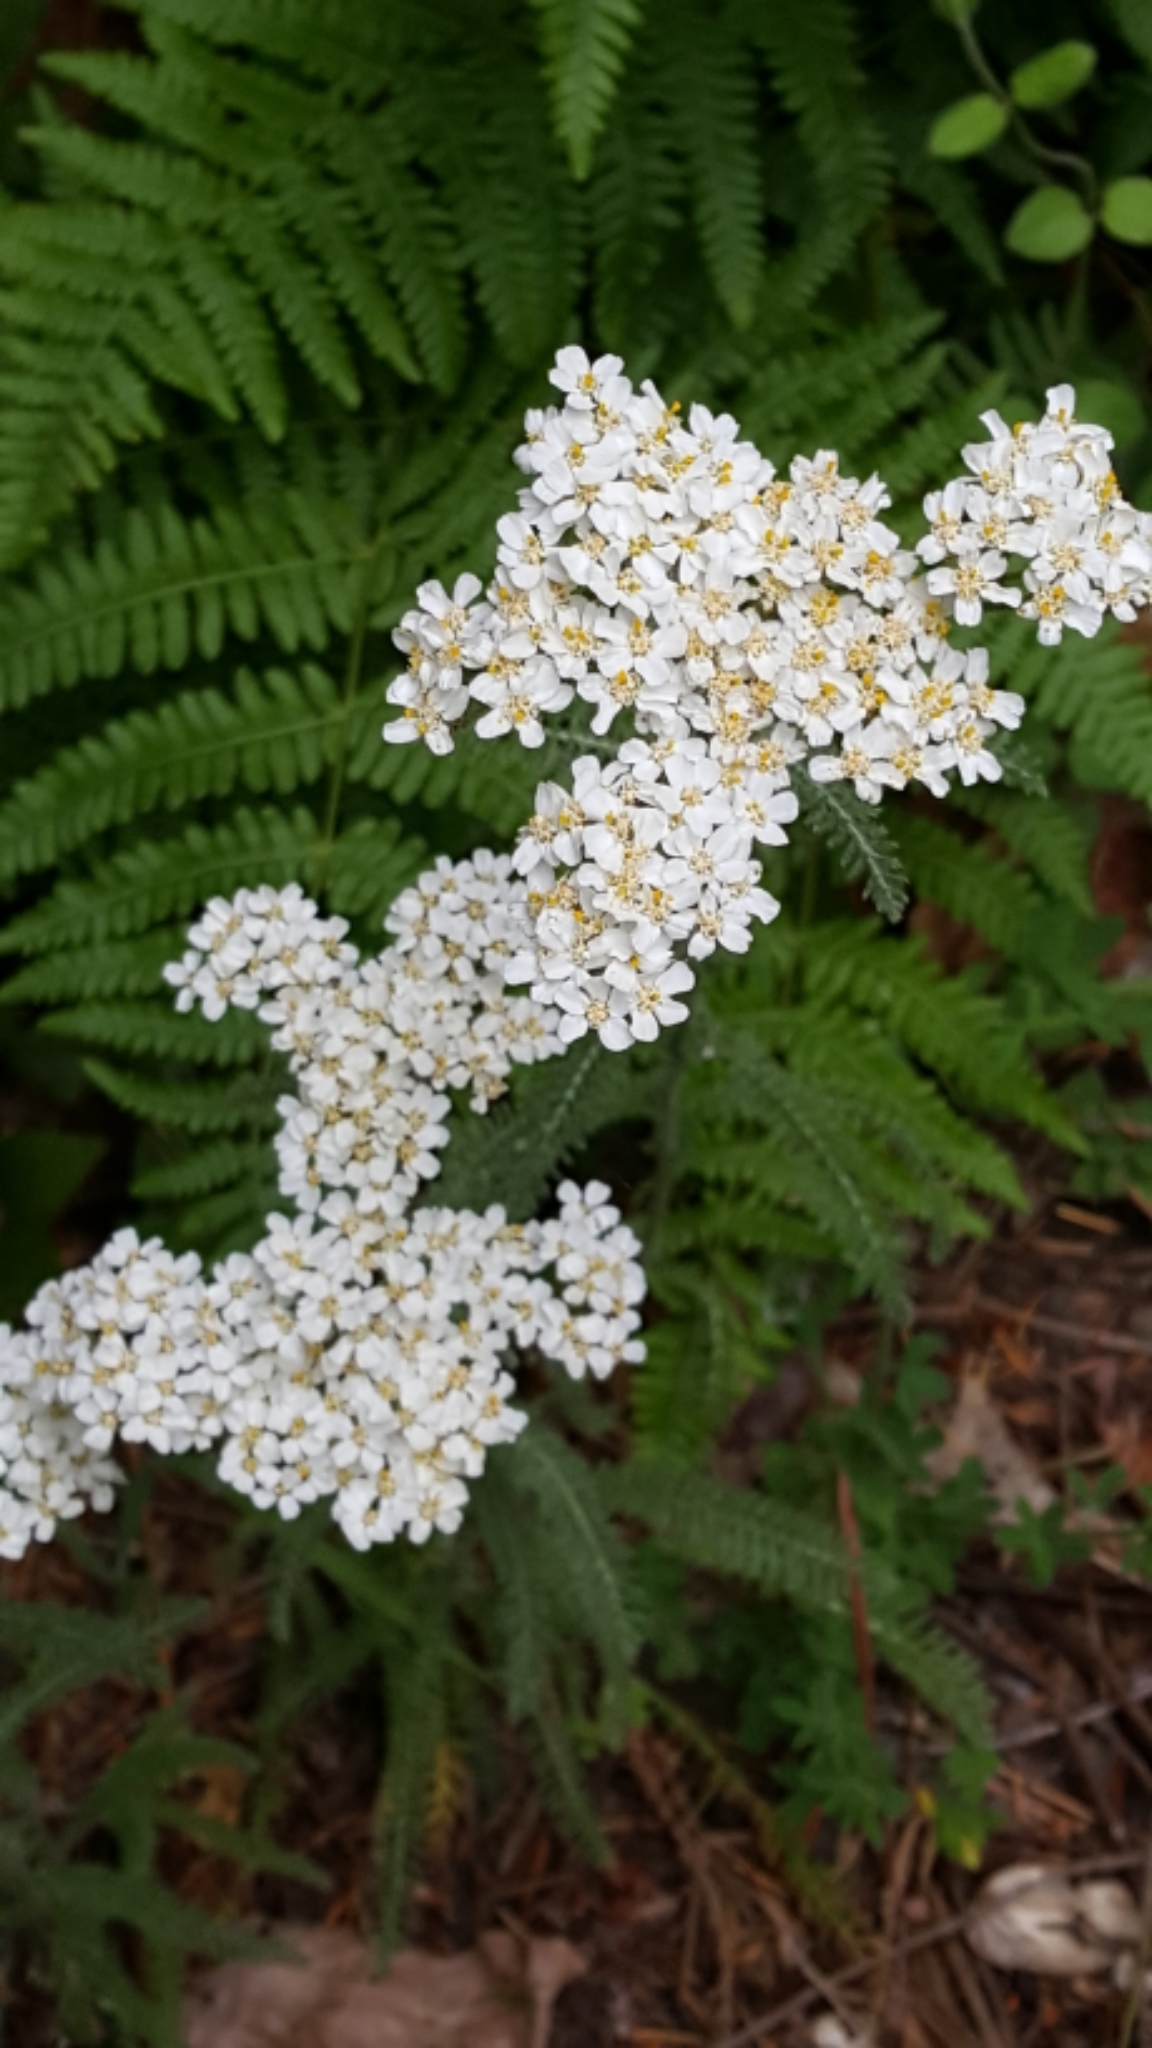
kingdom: Plantae
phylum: Tracheophyta
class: Magnoliopsida
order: Asterales
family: Asteraceae
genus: Achillea
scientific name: Achillea millefolium
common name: Yarrow
